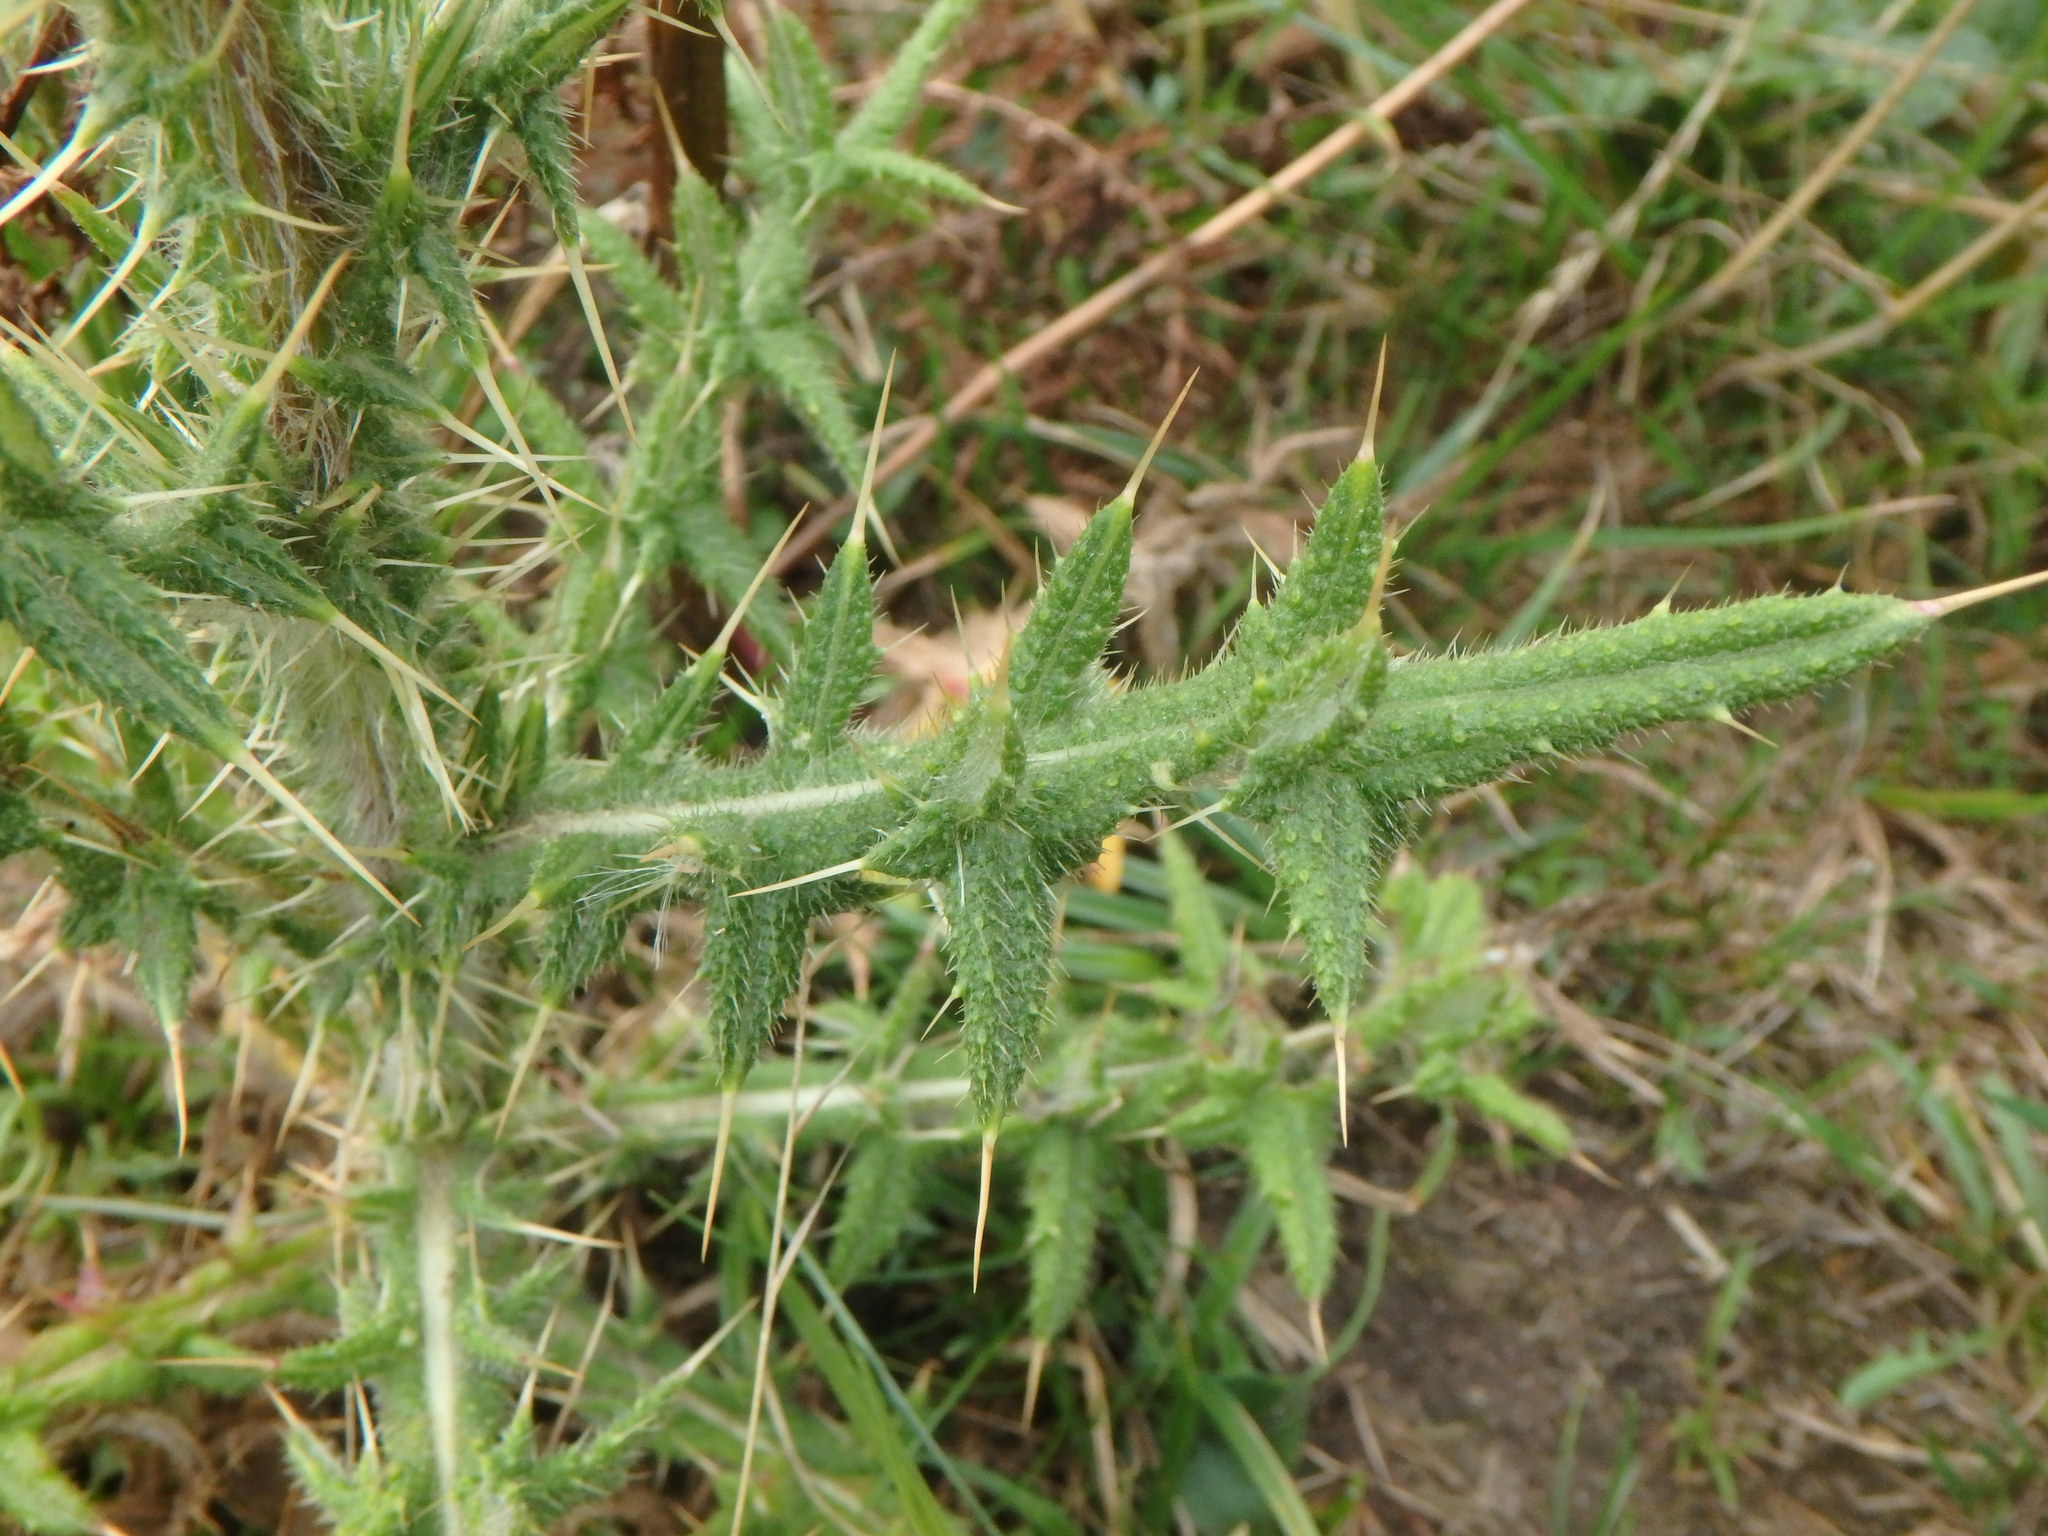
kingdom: Plantae
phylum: Tracheophyta
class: Magnoliopsida
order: Asterales
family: Asteraceae
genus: Cirsium
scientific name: Cirsium vulgare
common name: Bull thistle
